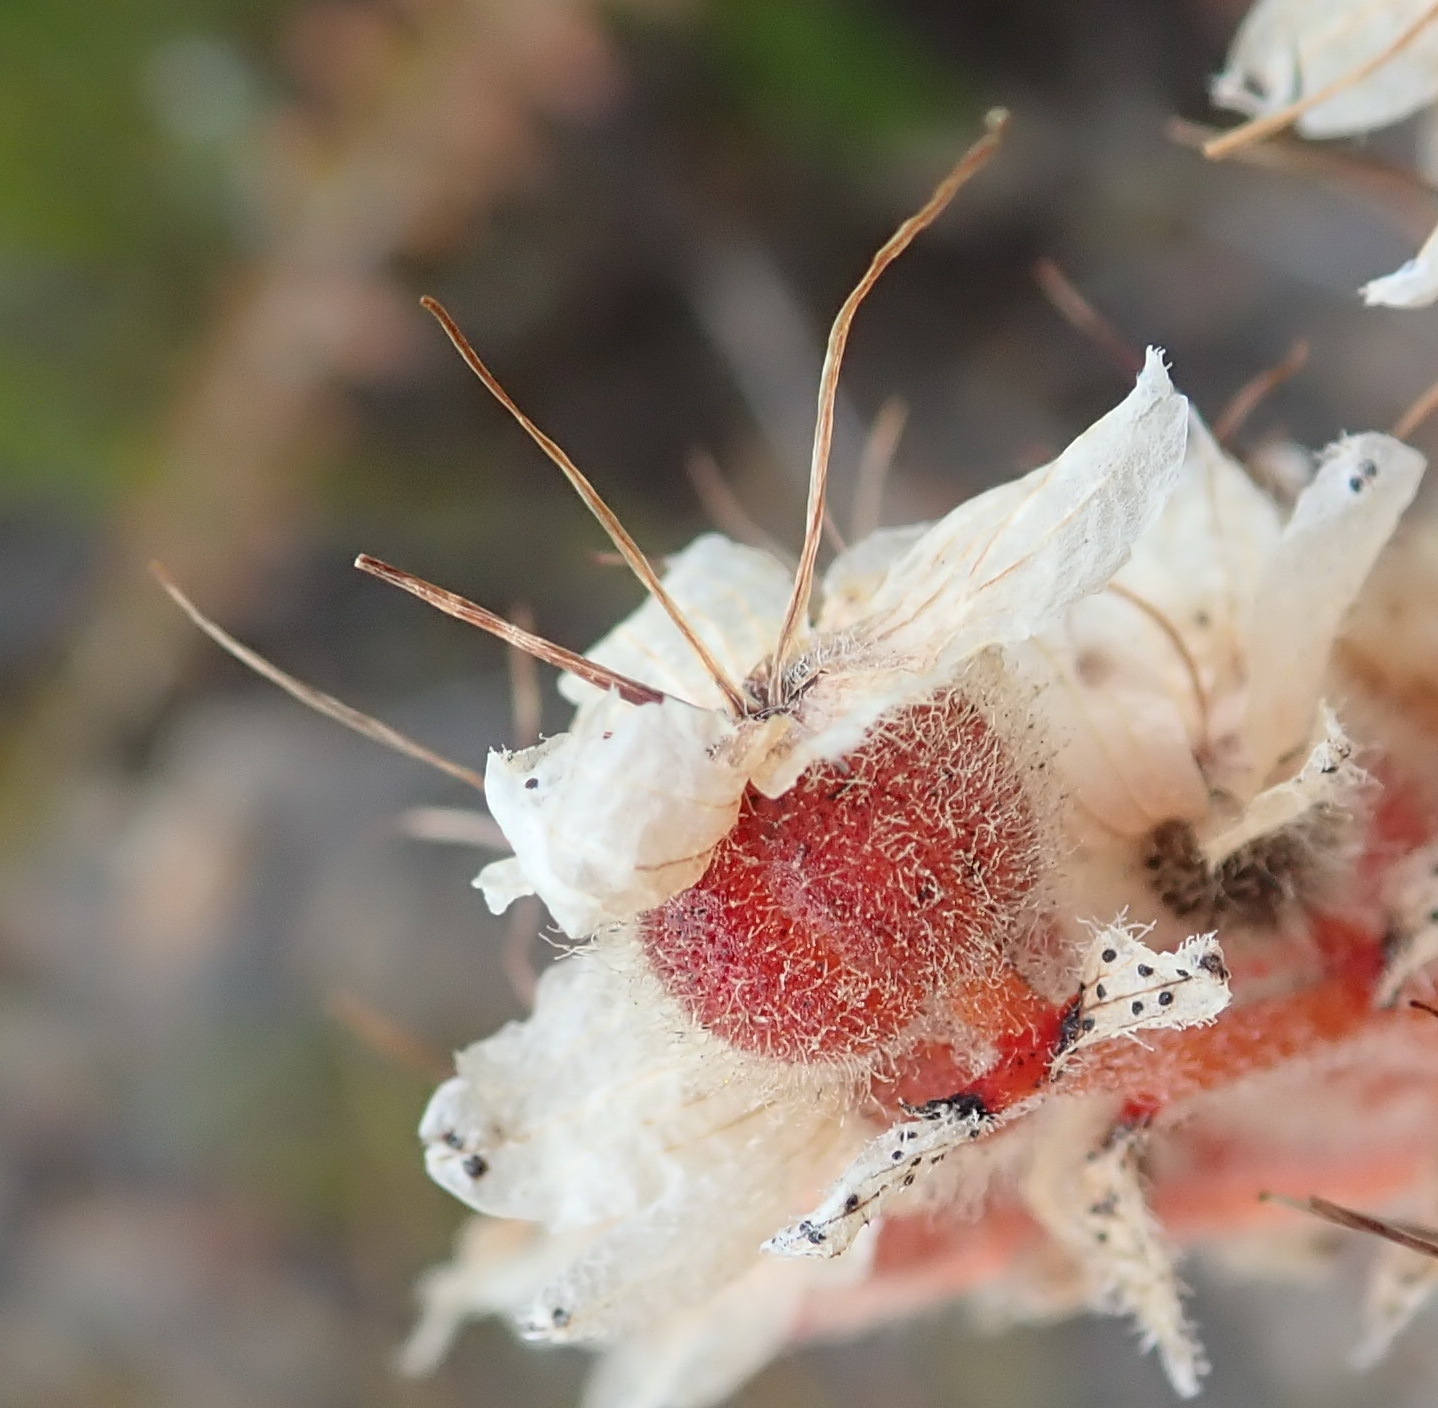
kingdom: Plantae
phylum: Tracheophyta
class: Liliopsida
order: Commelinales
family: Haemodoraceae
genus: Dilatris
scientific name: Dilatris ixioides
